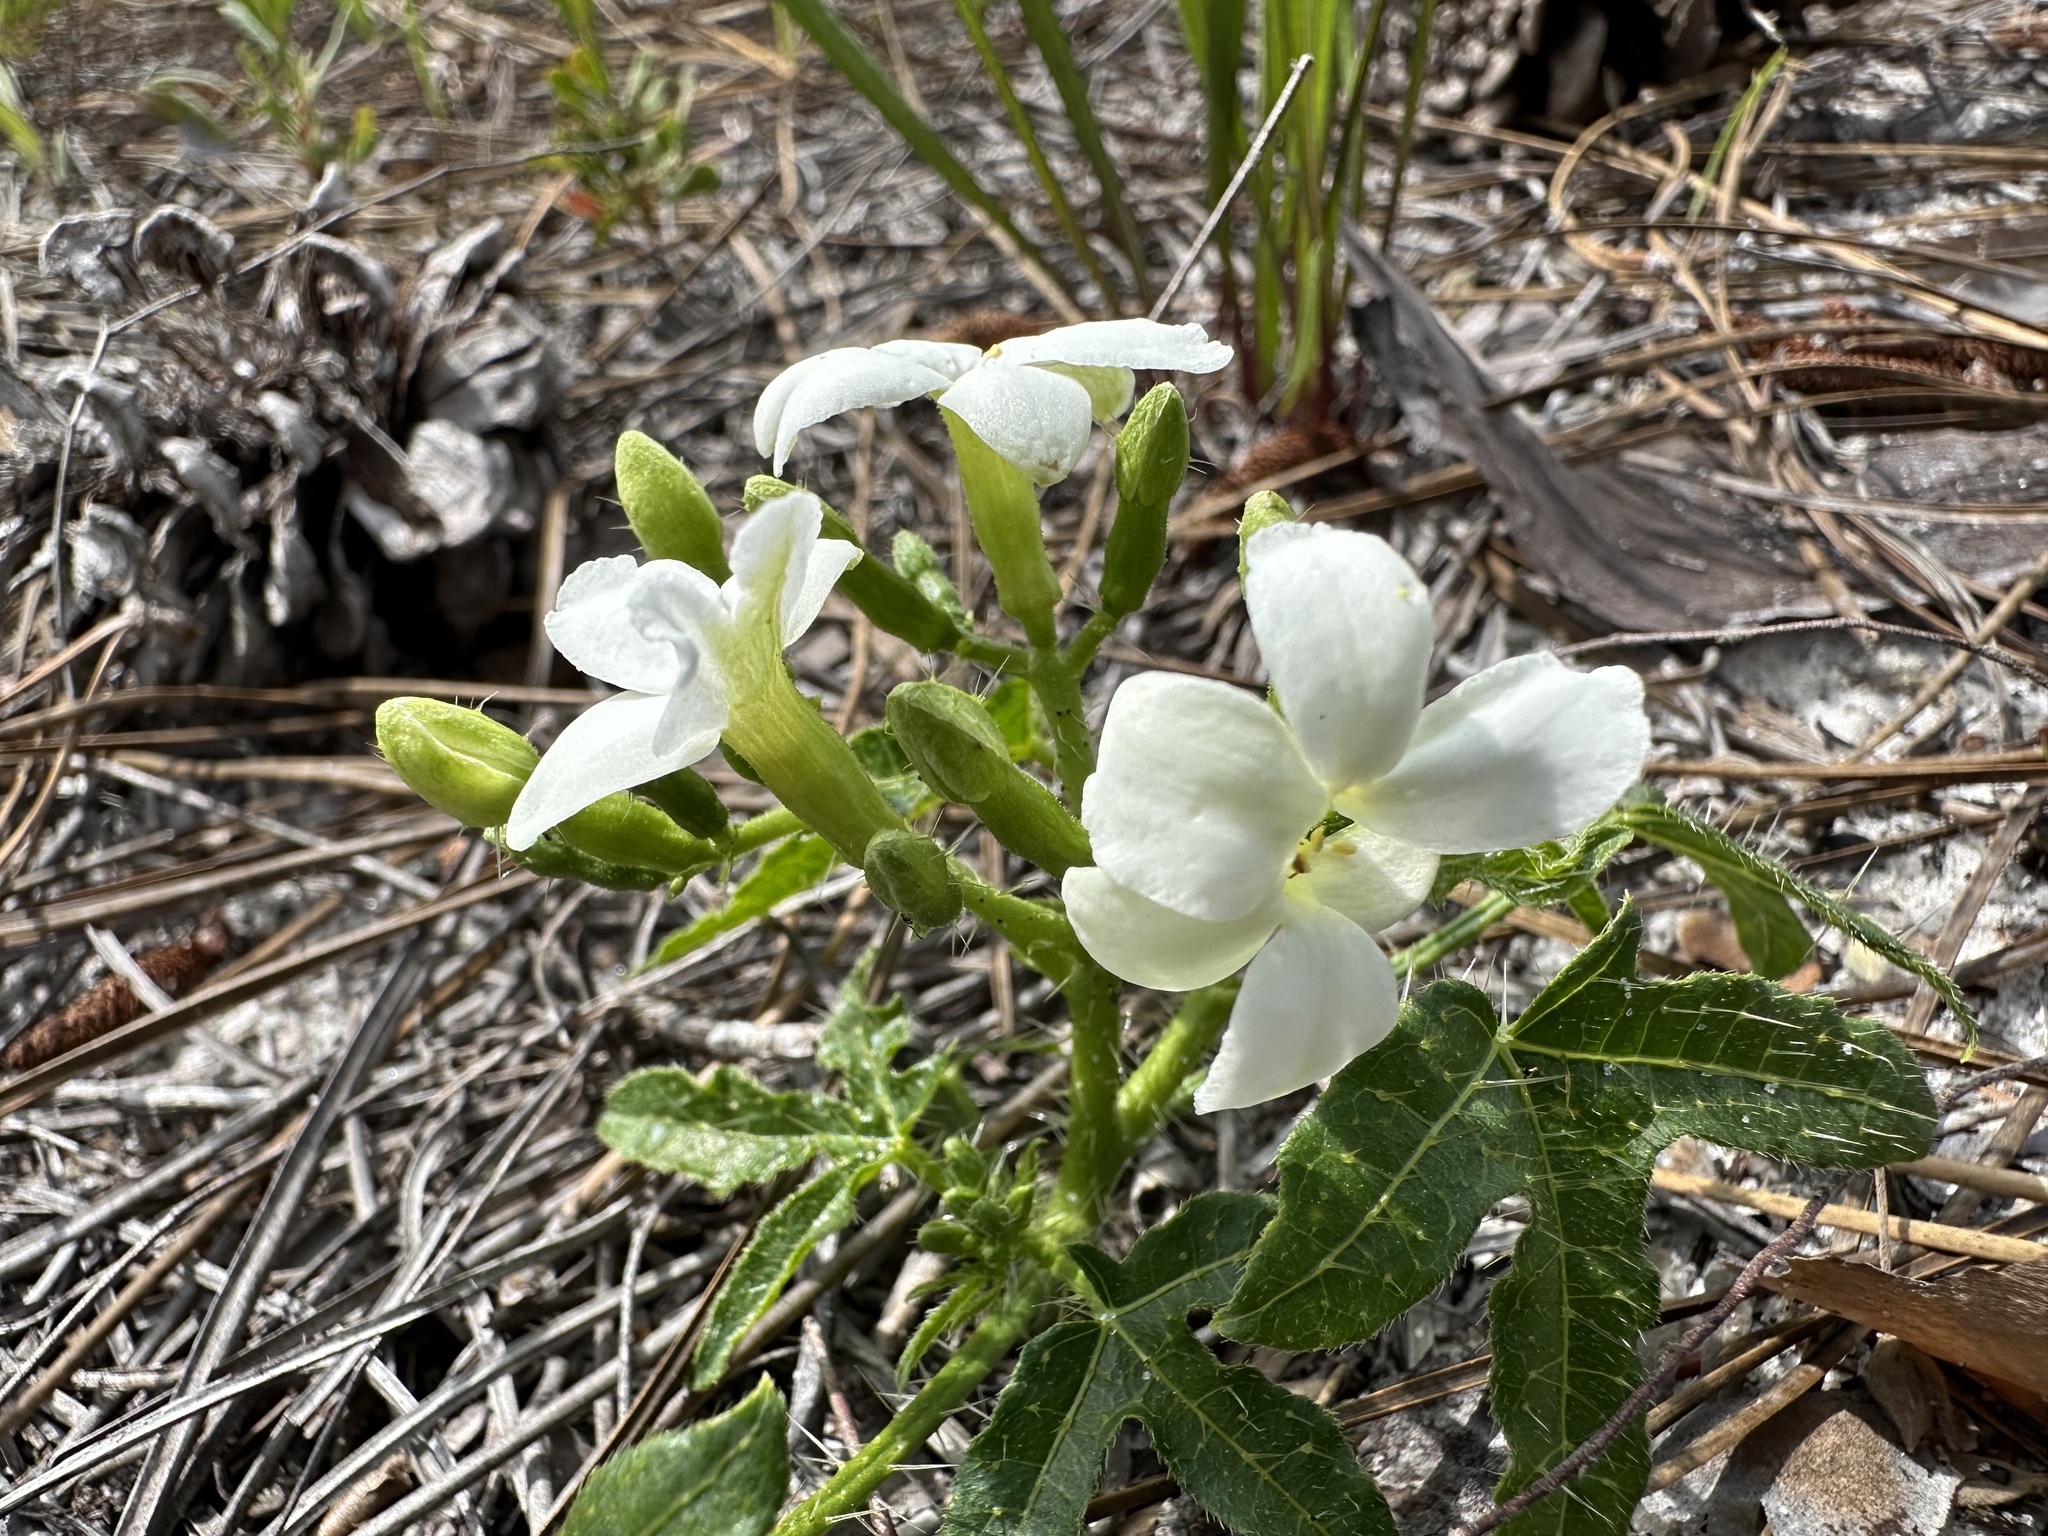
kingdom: Plantae
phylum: Tracheophyta
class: Magnoliopsida
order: Malpighiales
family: Euphorbiaceae
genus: Cnidoscolus
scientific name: Cnidoscolus stimulosus
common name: Bull-nettle
